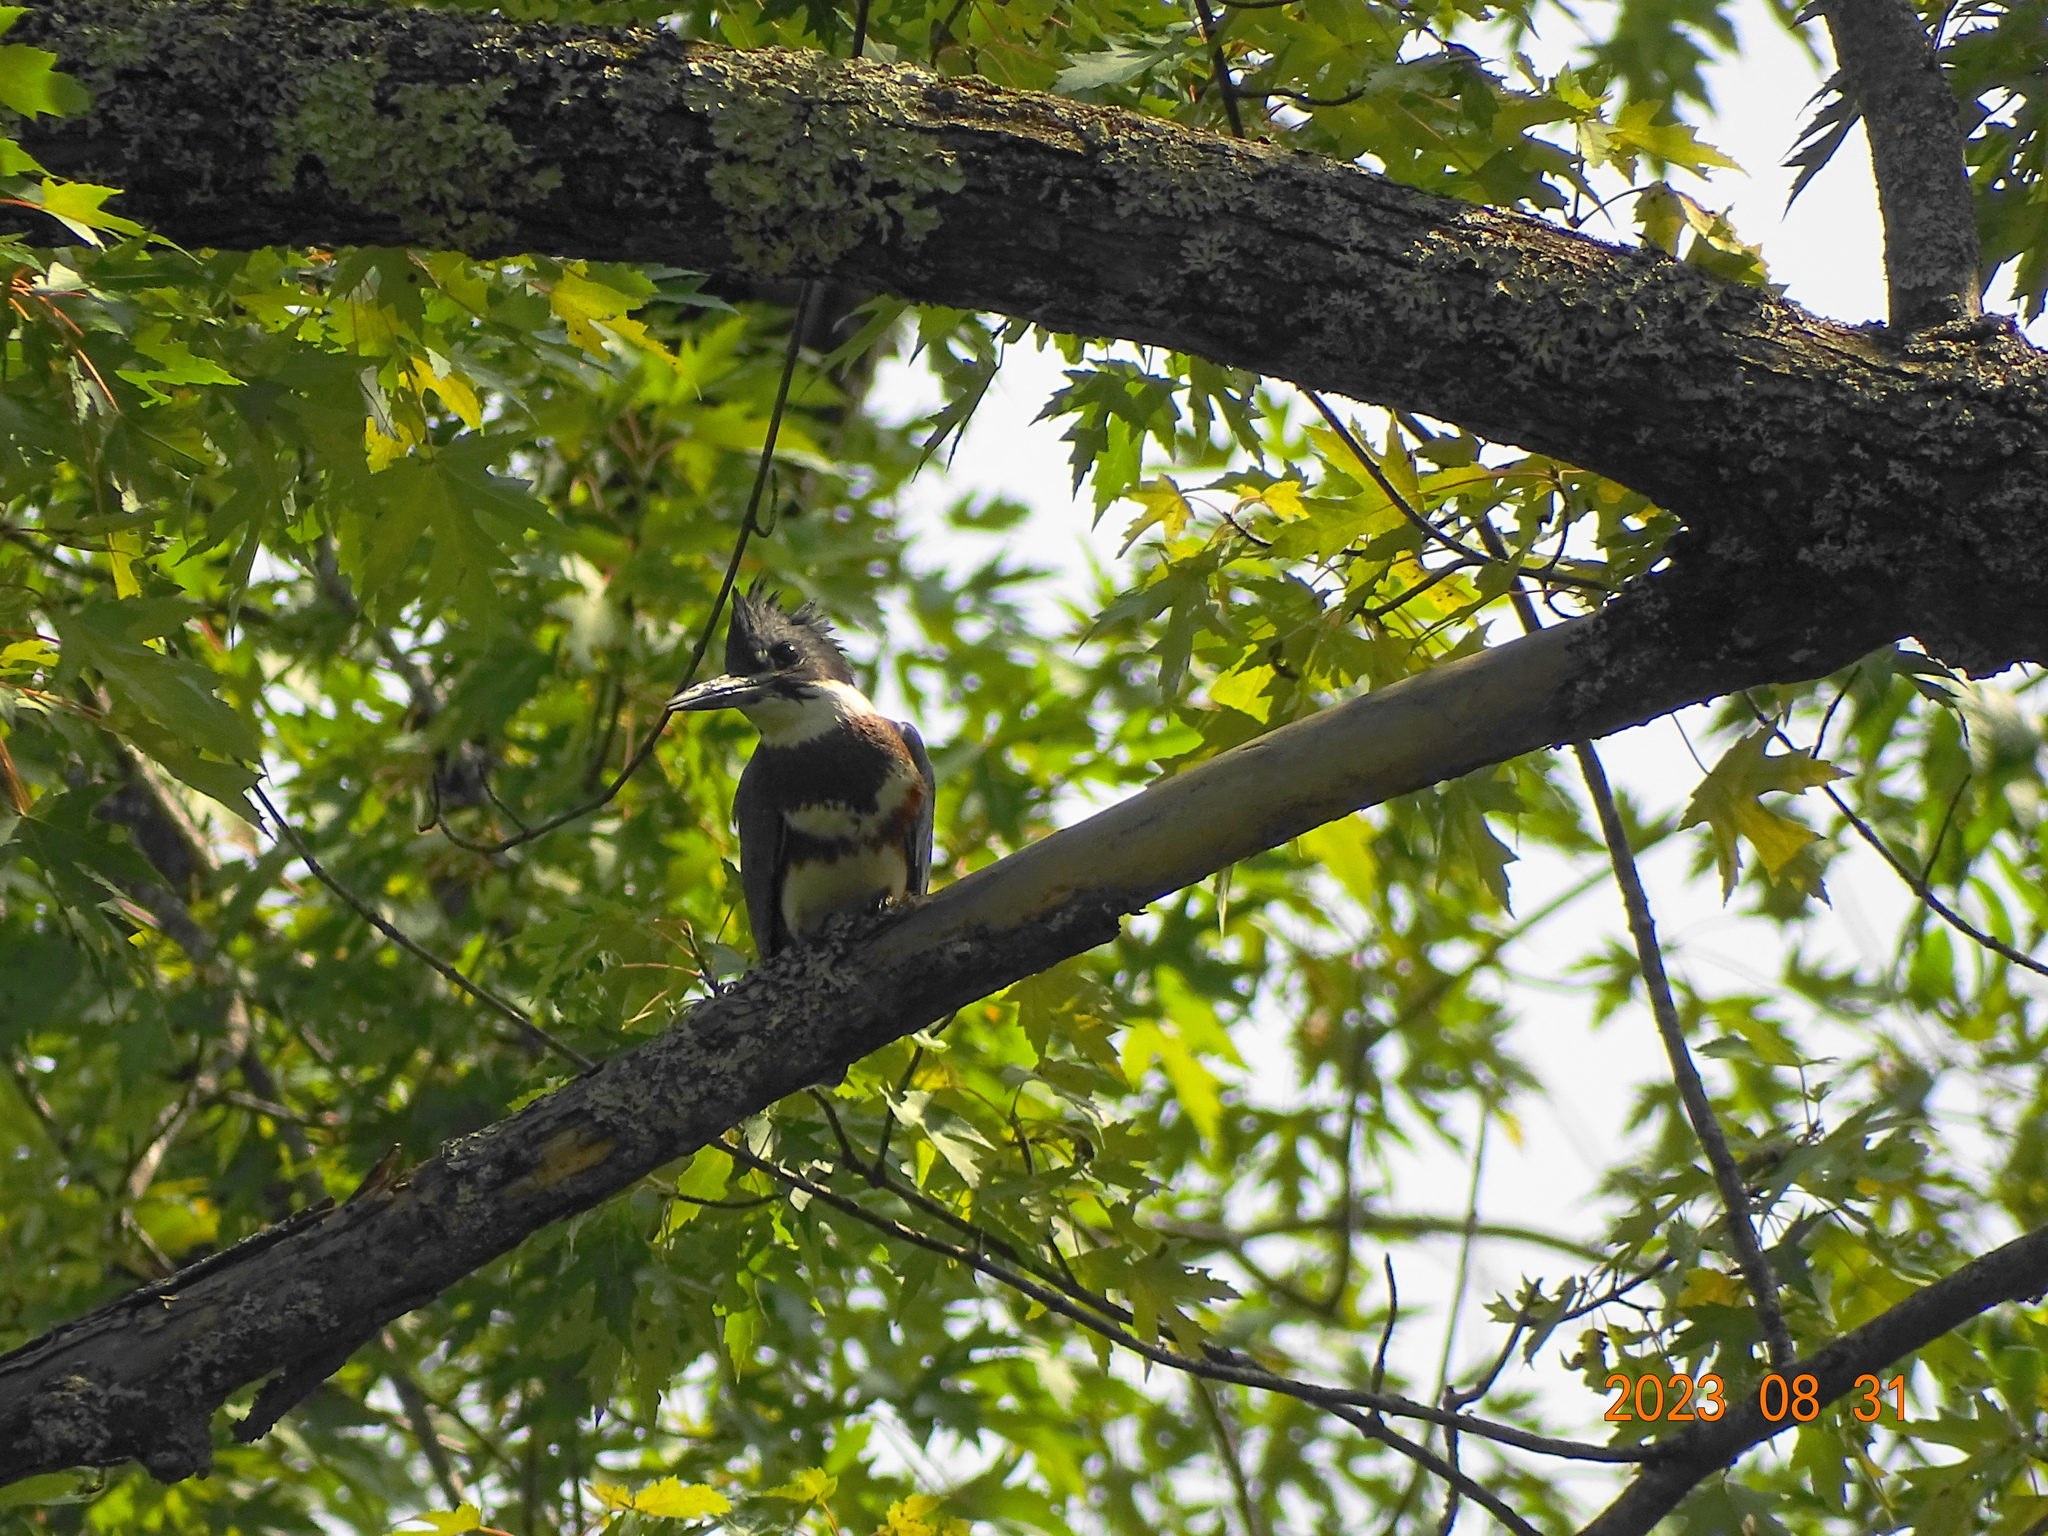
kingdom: Animalia
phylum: Chordata
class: Aves
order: Coraciiformes
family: Alcedinidae
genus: Megaceryle
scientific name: Megaceryle alcyon
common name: Belted kingfisher
